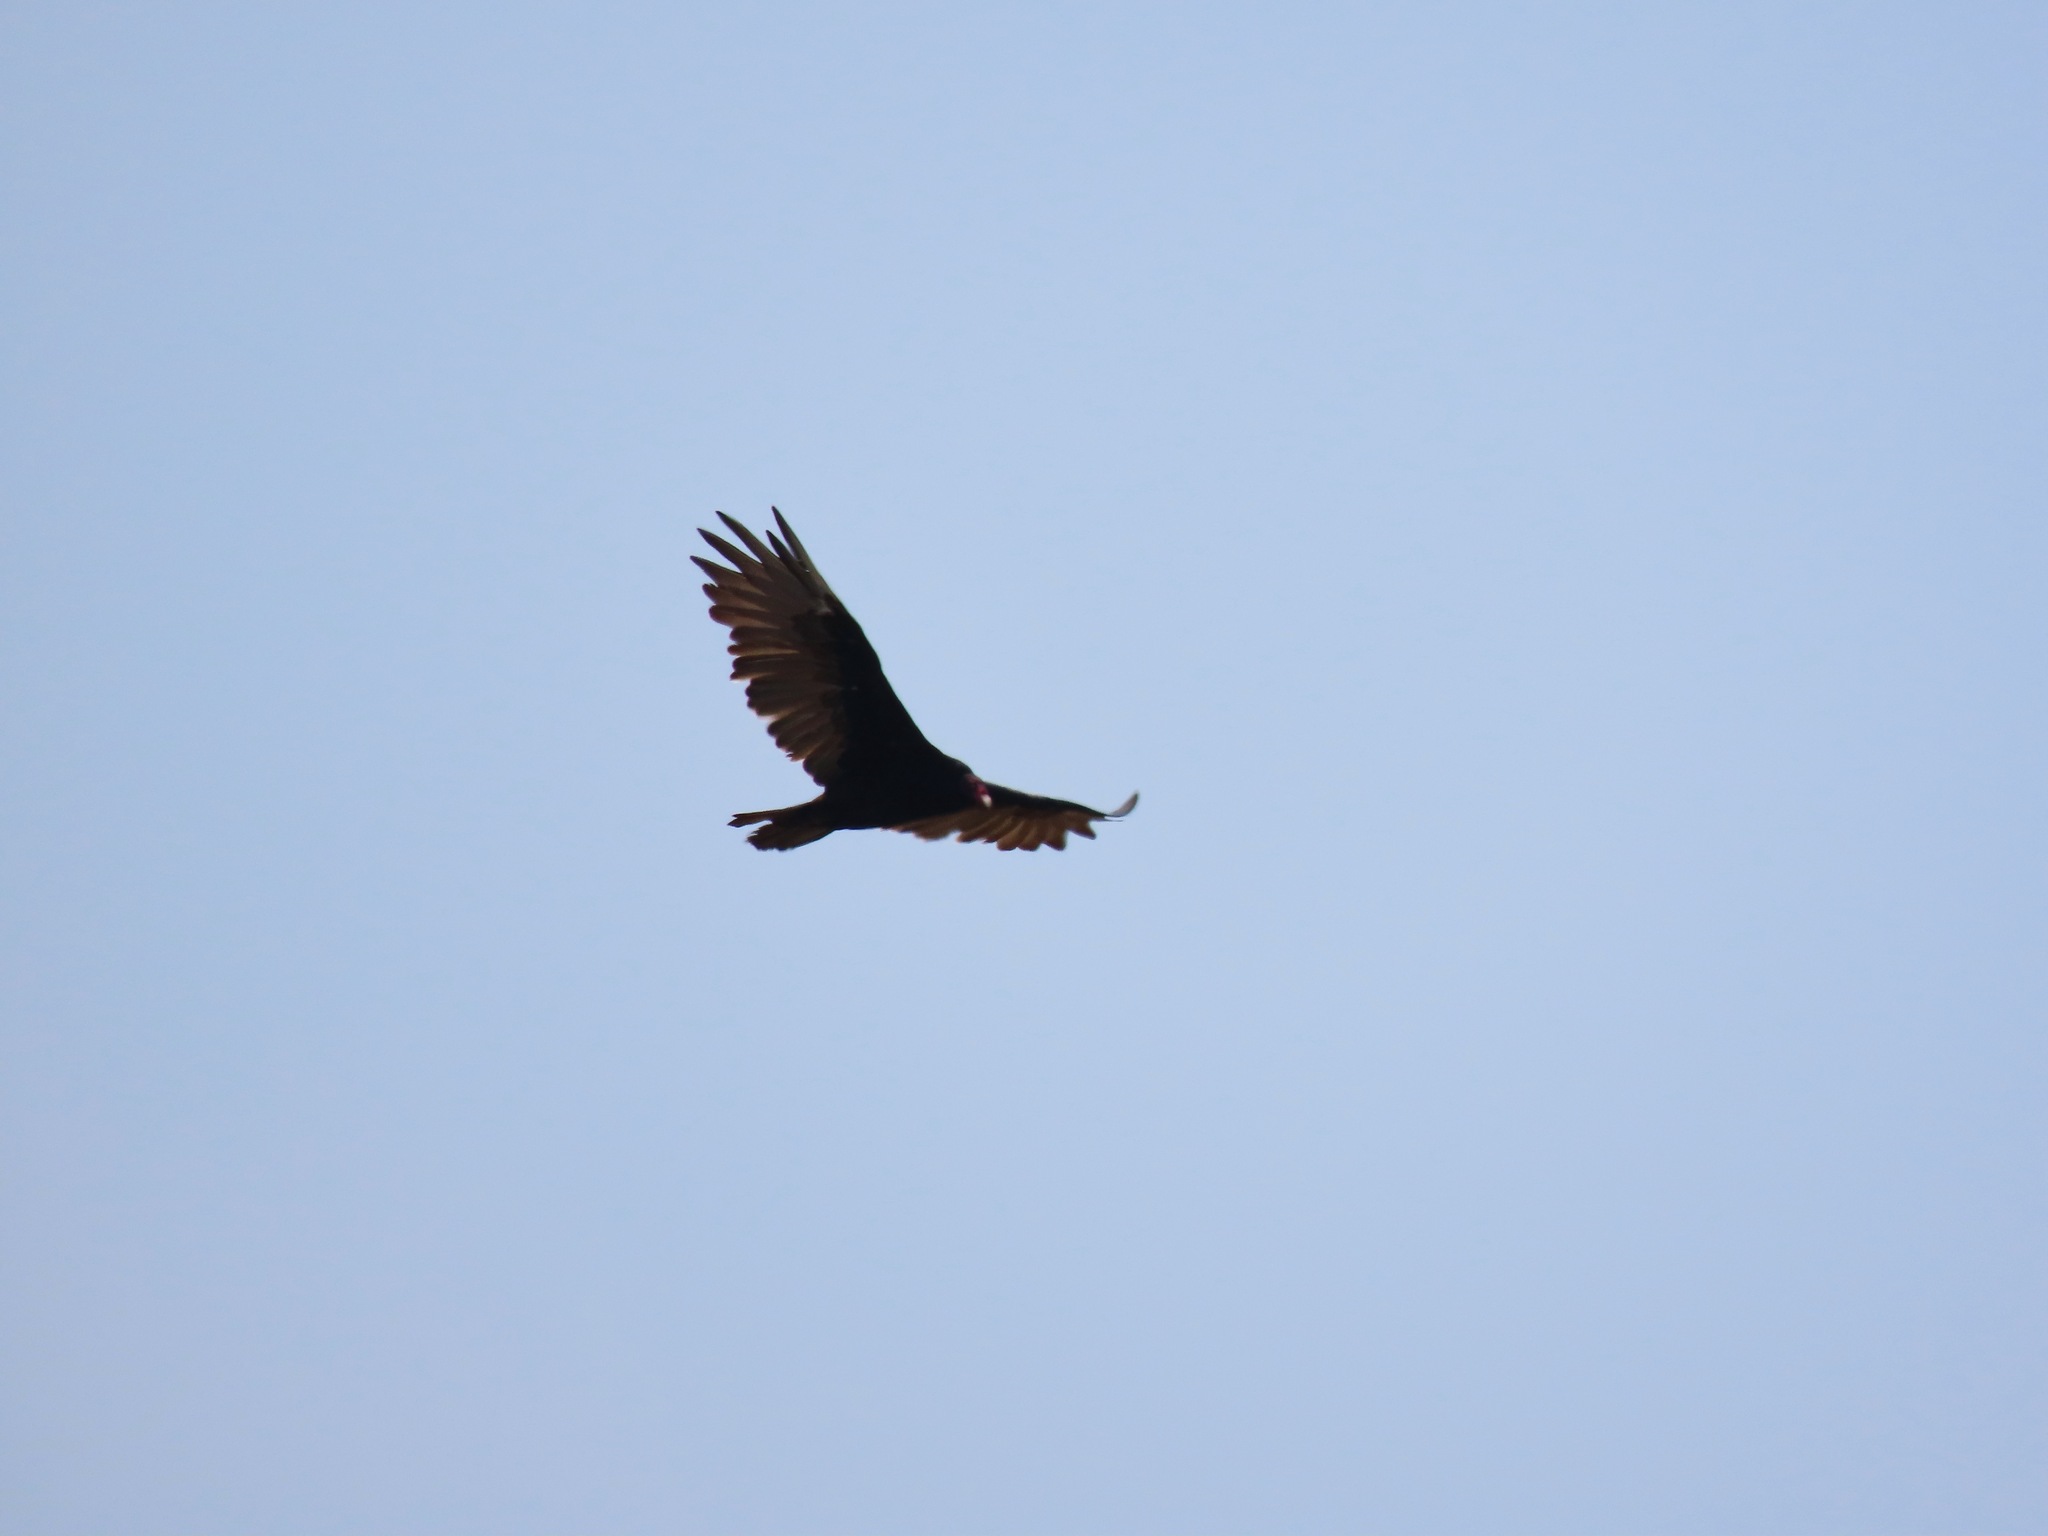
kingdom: Animalia
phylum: Chordata
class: Aves
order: Accipitriformes
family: Cathartidae
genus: Cathartes
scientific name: Cathartes aura
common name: Turkey vulture
